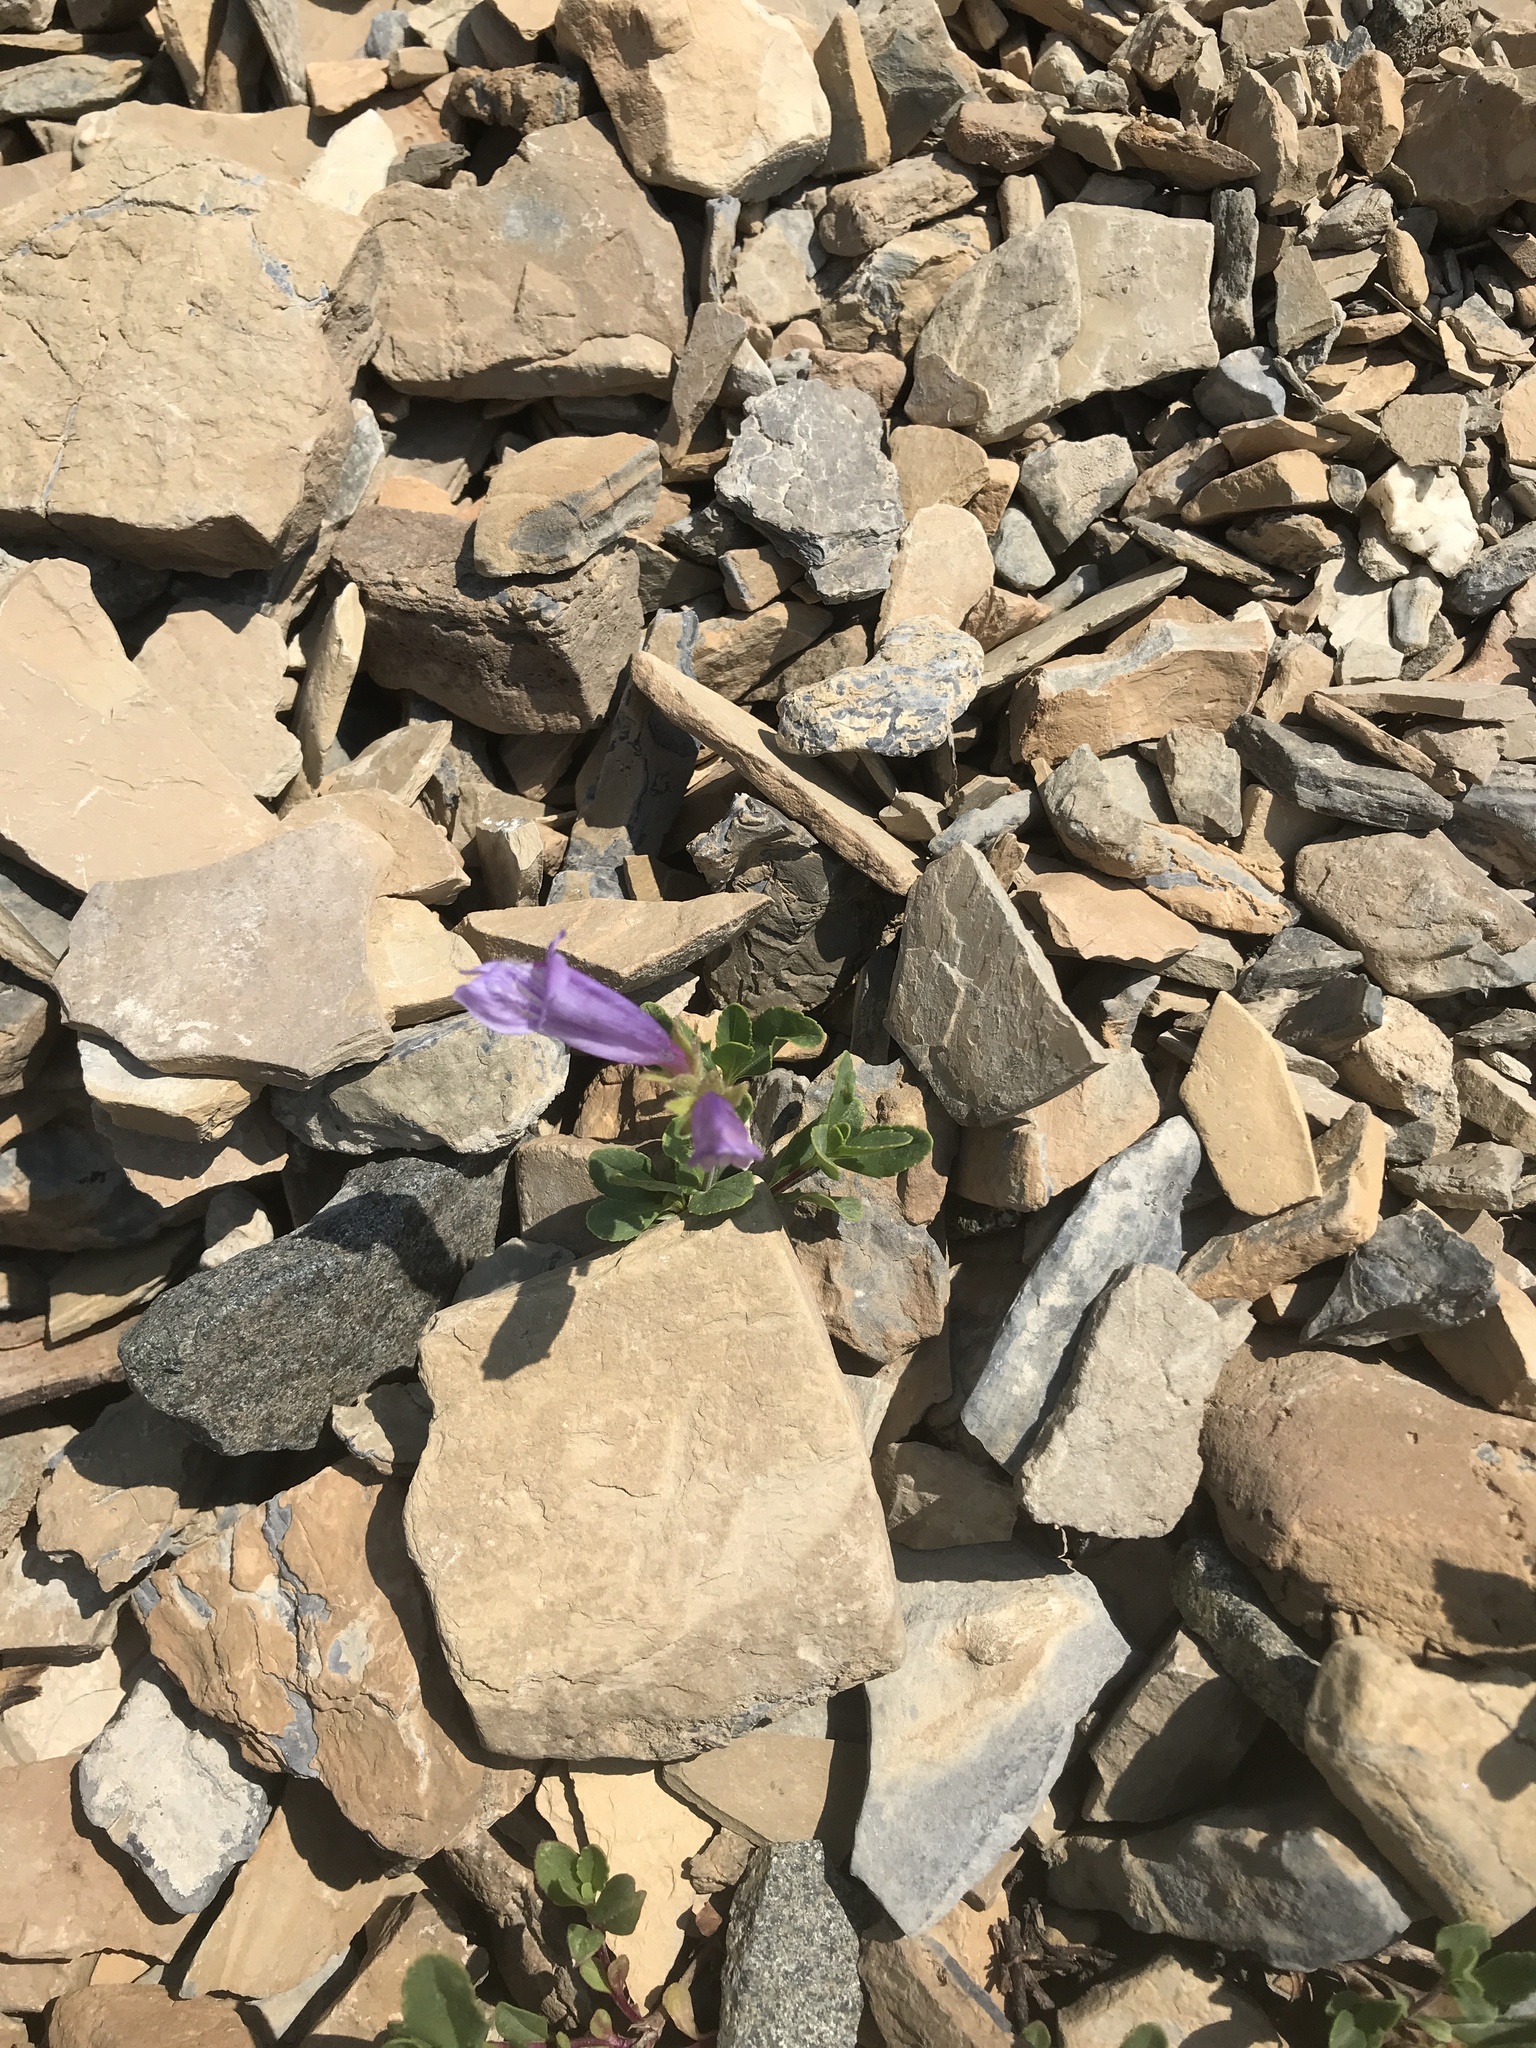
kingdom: Plantae
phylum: Tracheophyta
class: Magnoliopsida
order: Lamiales
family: Plantaginaceae
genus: Penstemon
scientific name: Penstemon ellipticus
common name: Alpine beardtongue
